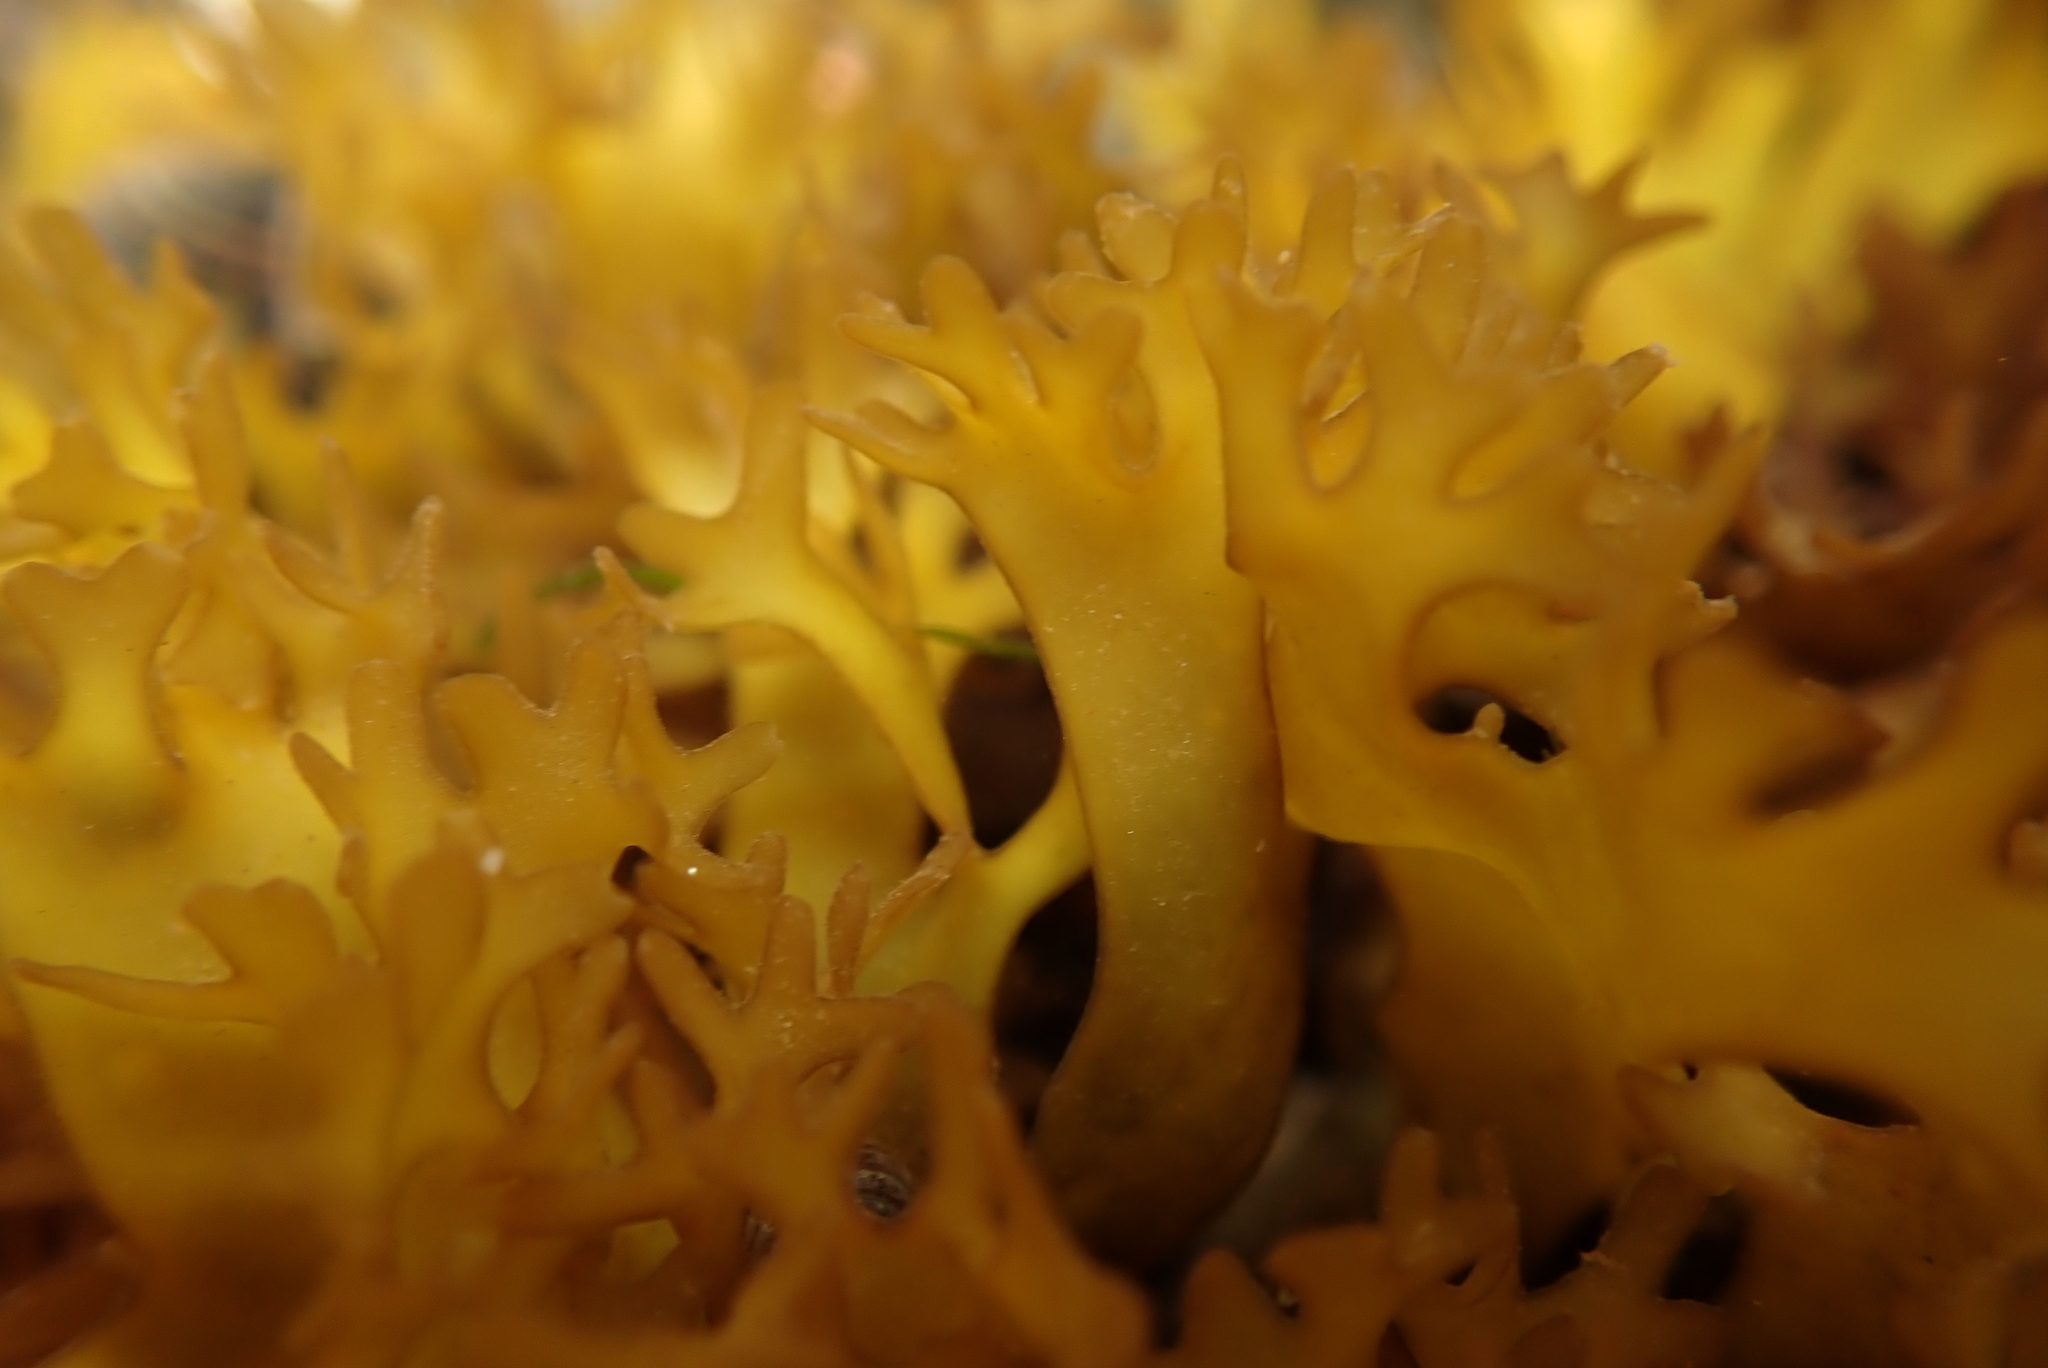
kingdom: Plantae
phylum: Rhodophyta
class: Florideophyceae
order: Gigartinales
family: Gigartinaceae
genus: Chondrus
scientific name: Chondrus crispus
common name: Carrageen
